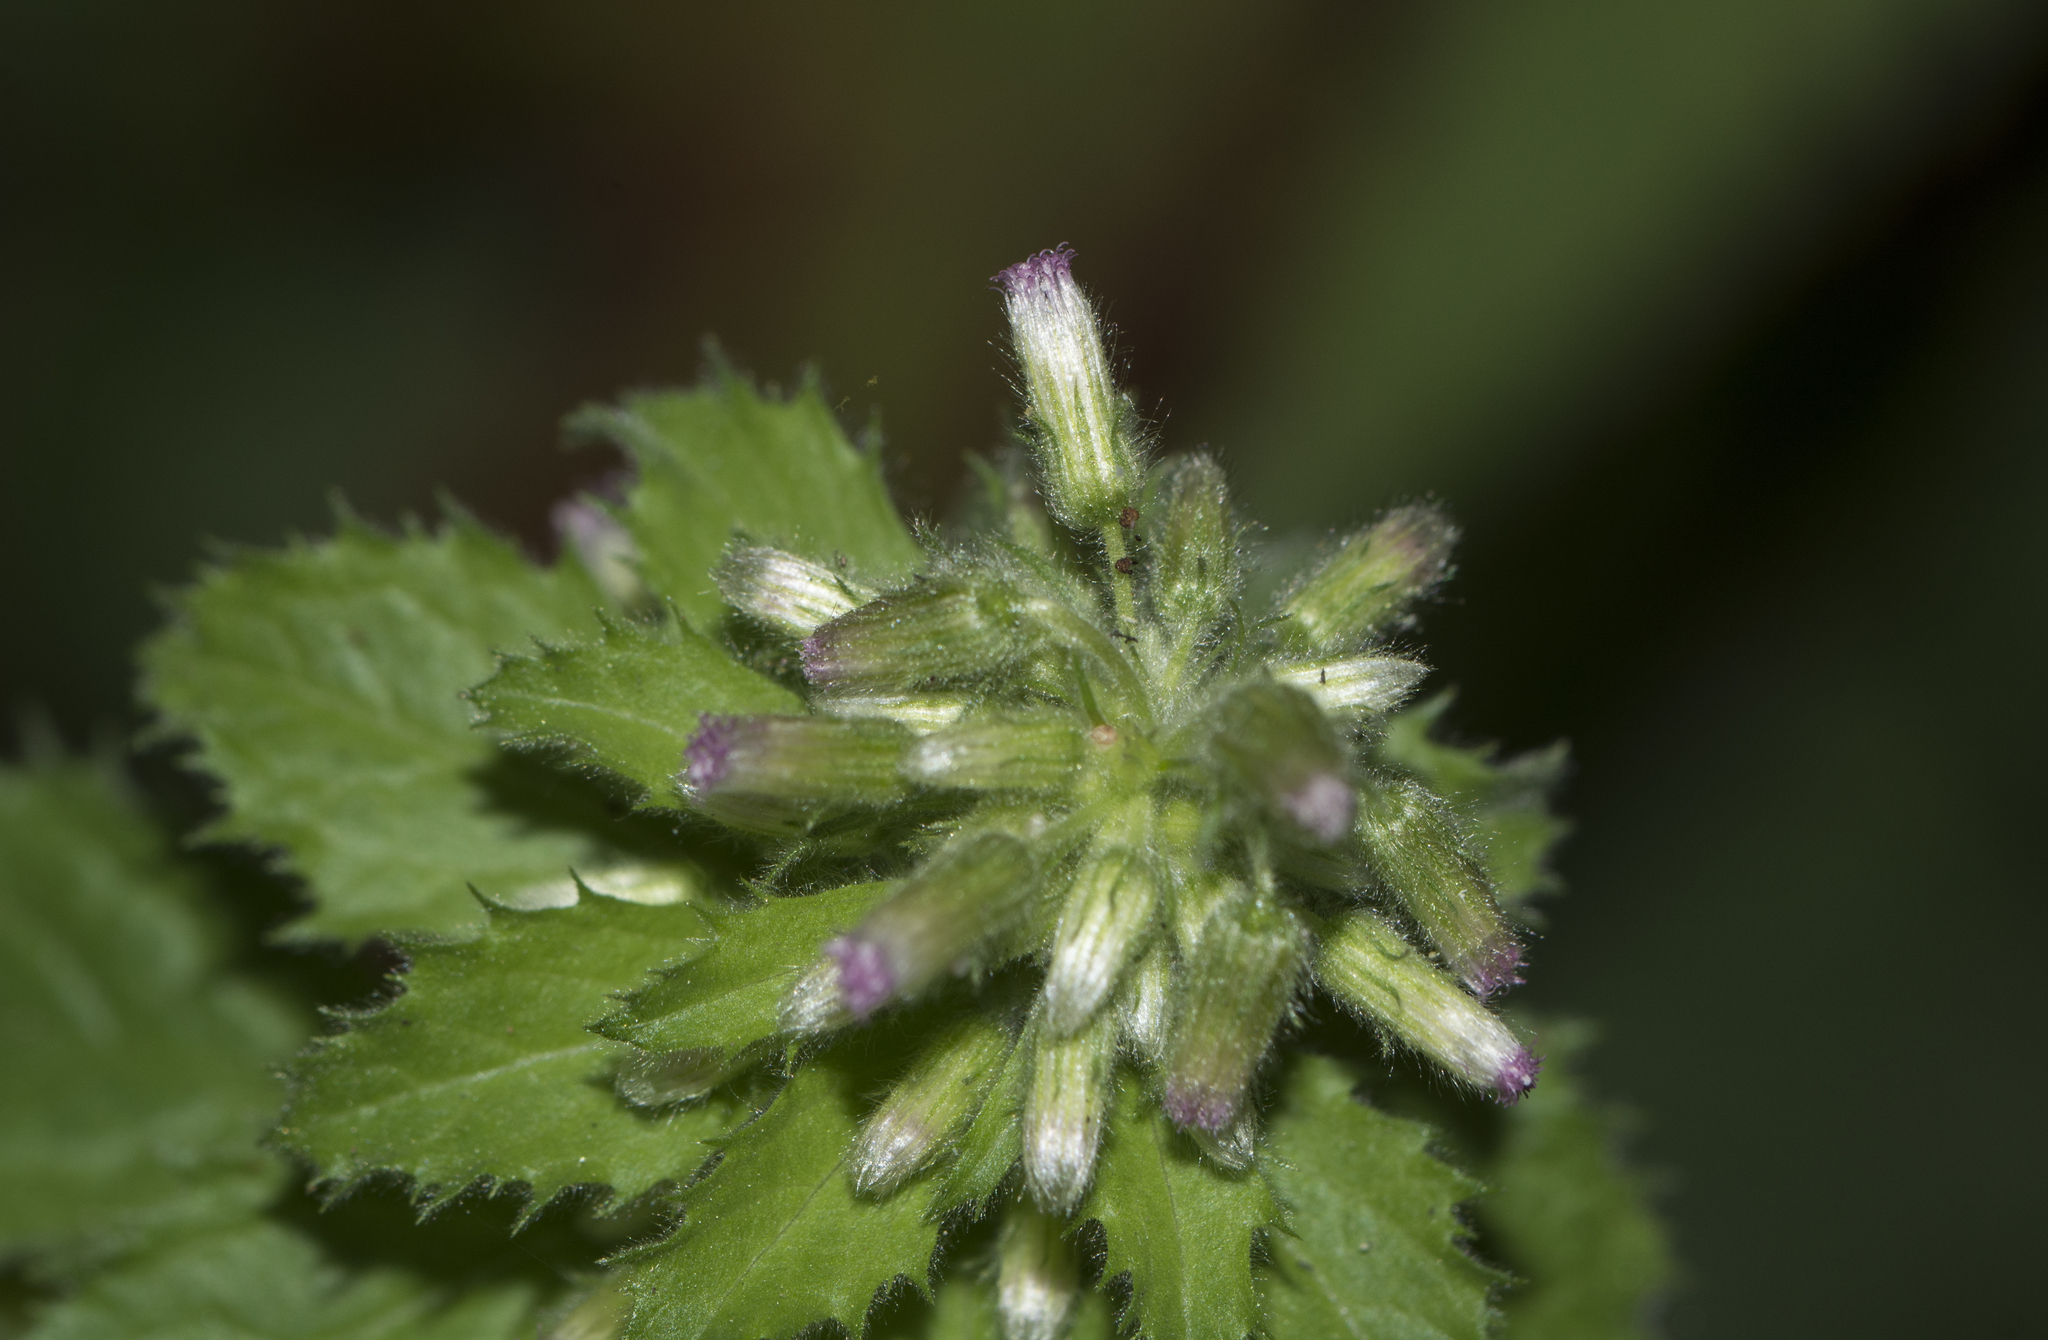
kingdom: Plantae
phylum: Tracheophyta
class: Magnoliopsida
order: Asterales
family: Asteraceae
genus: Blumea
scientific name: Blumea axillaris
